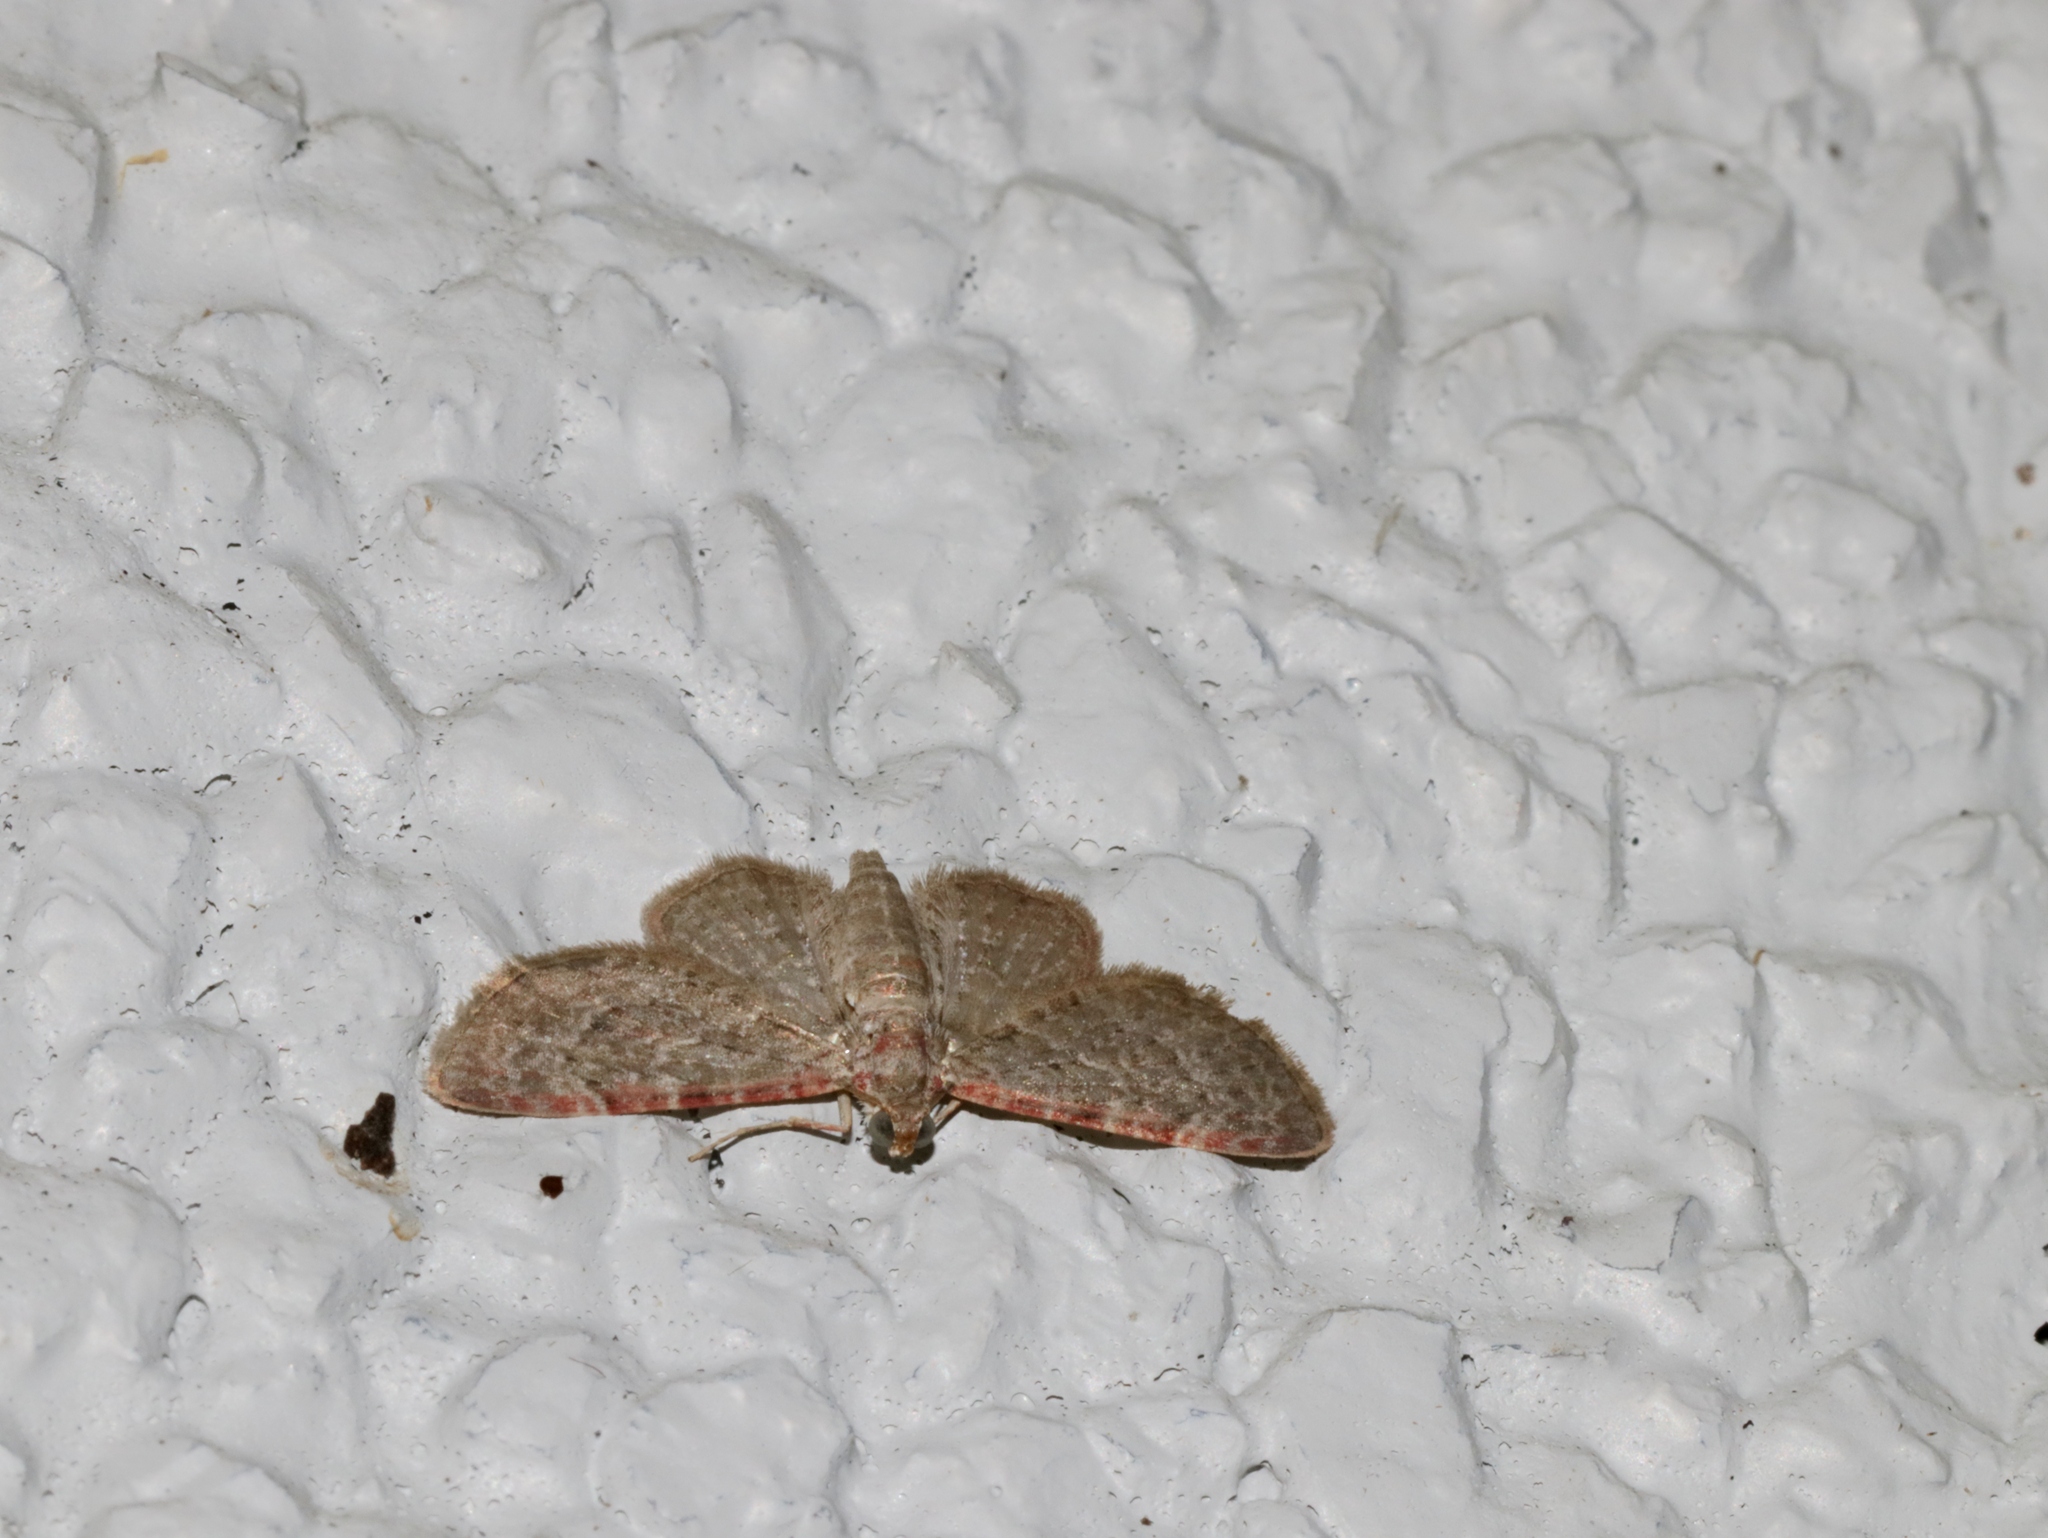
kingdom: Animalia
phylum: Arthropoda
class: Insecta
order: Lepidoptera
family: Geometridae
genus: Sigilliclystis
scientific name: Sigilliclystis
